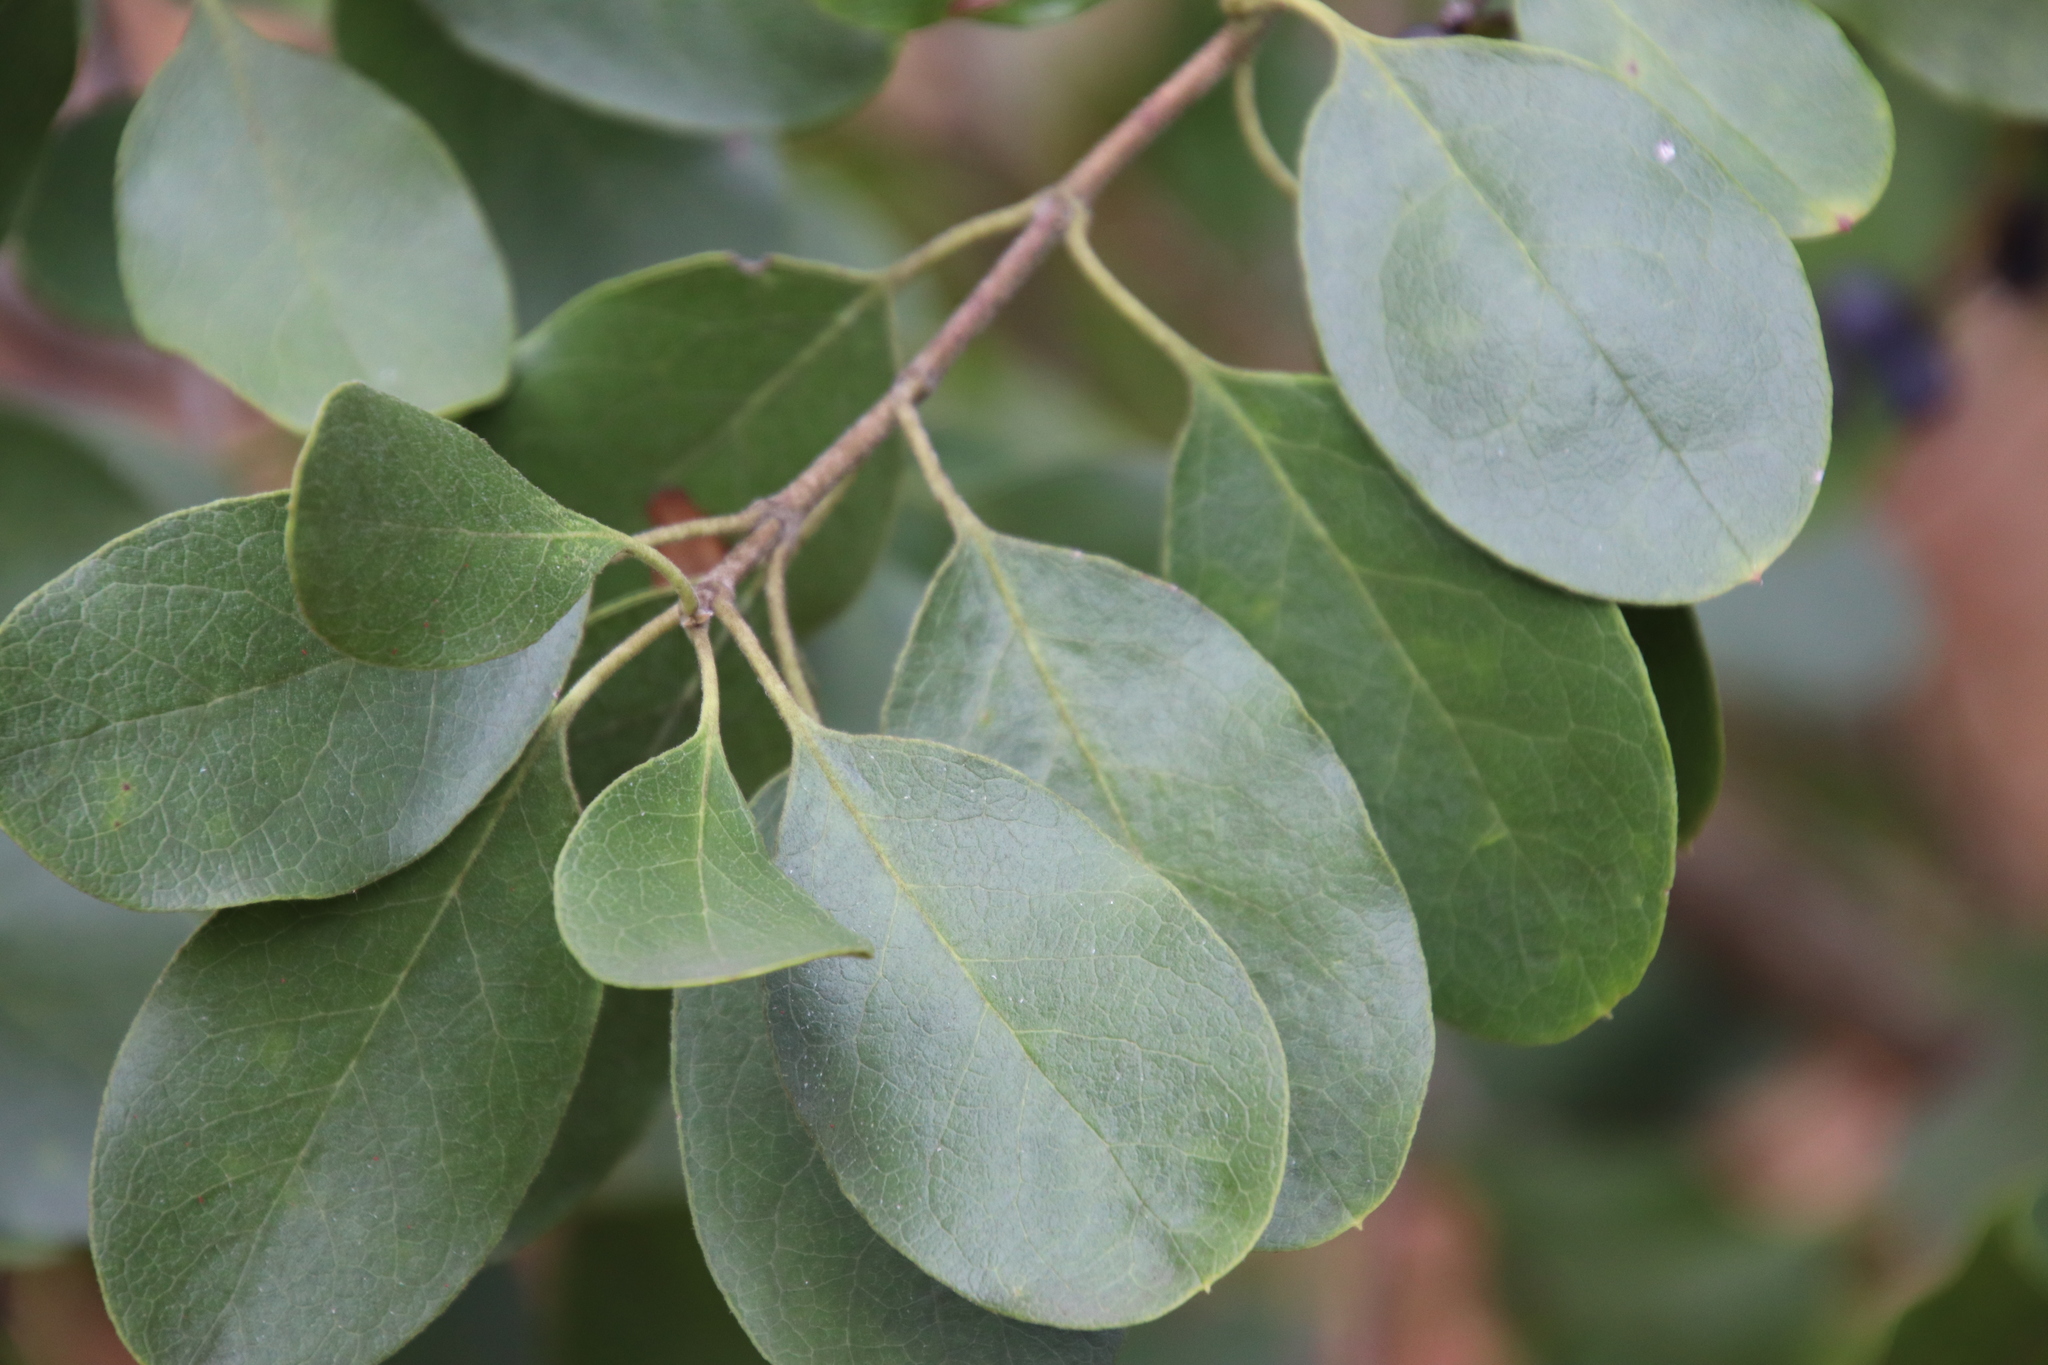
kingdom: Plantae
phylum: Tracheophyta
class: Magnoliopsida
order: Garryales
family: Garryaceae
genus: Garrya
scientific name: Garrya lindheimeri
